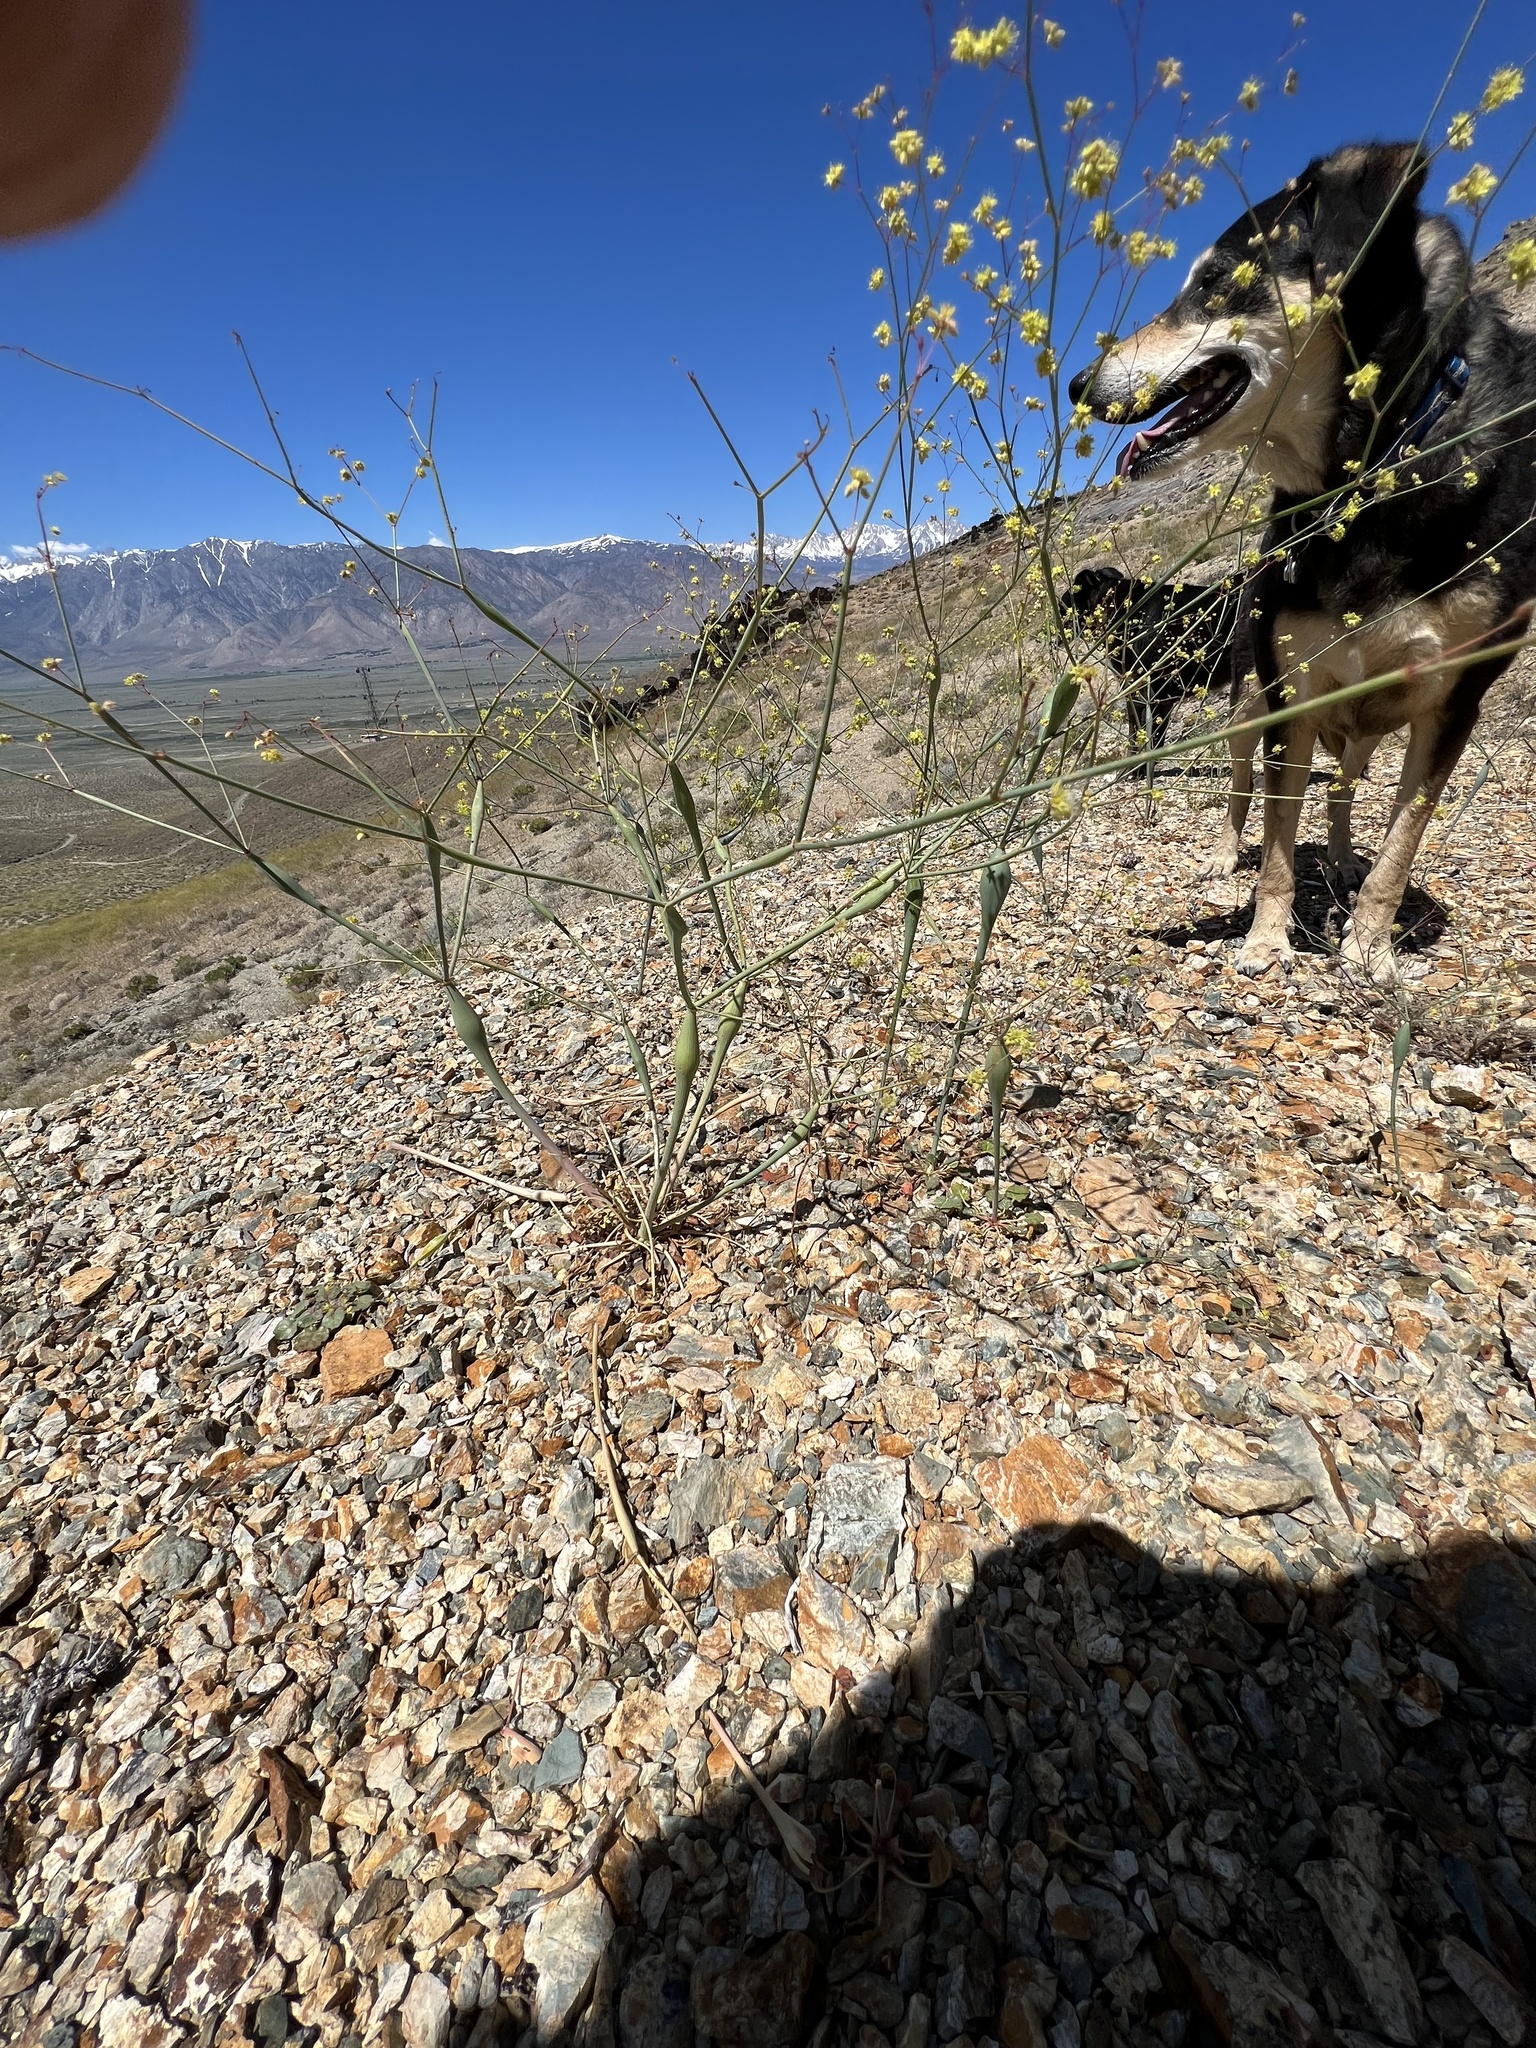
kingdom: Plantae
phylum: Tracheophyta
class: Magnoliopsida
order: Caryophyllales
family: Polygonaceae
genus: Eriogonum
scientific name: Eriogonum inflatum
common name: Desert trumpet
